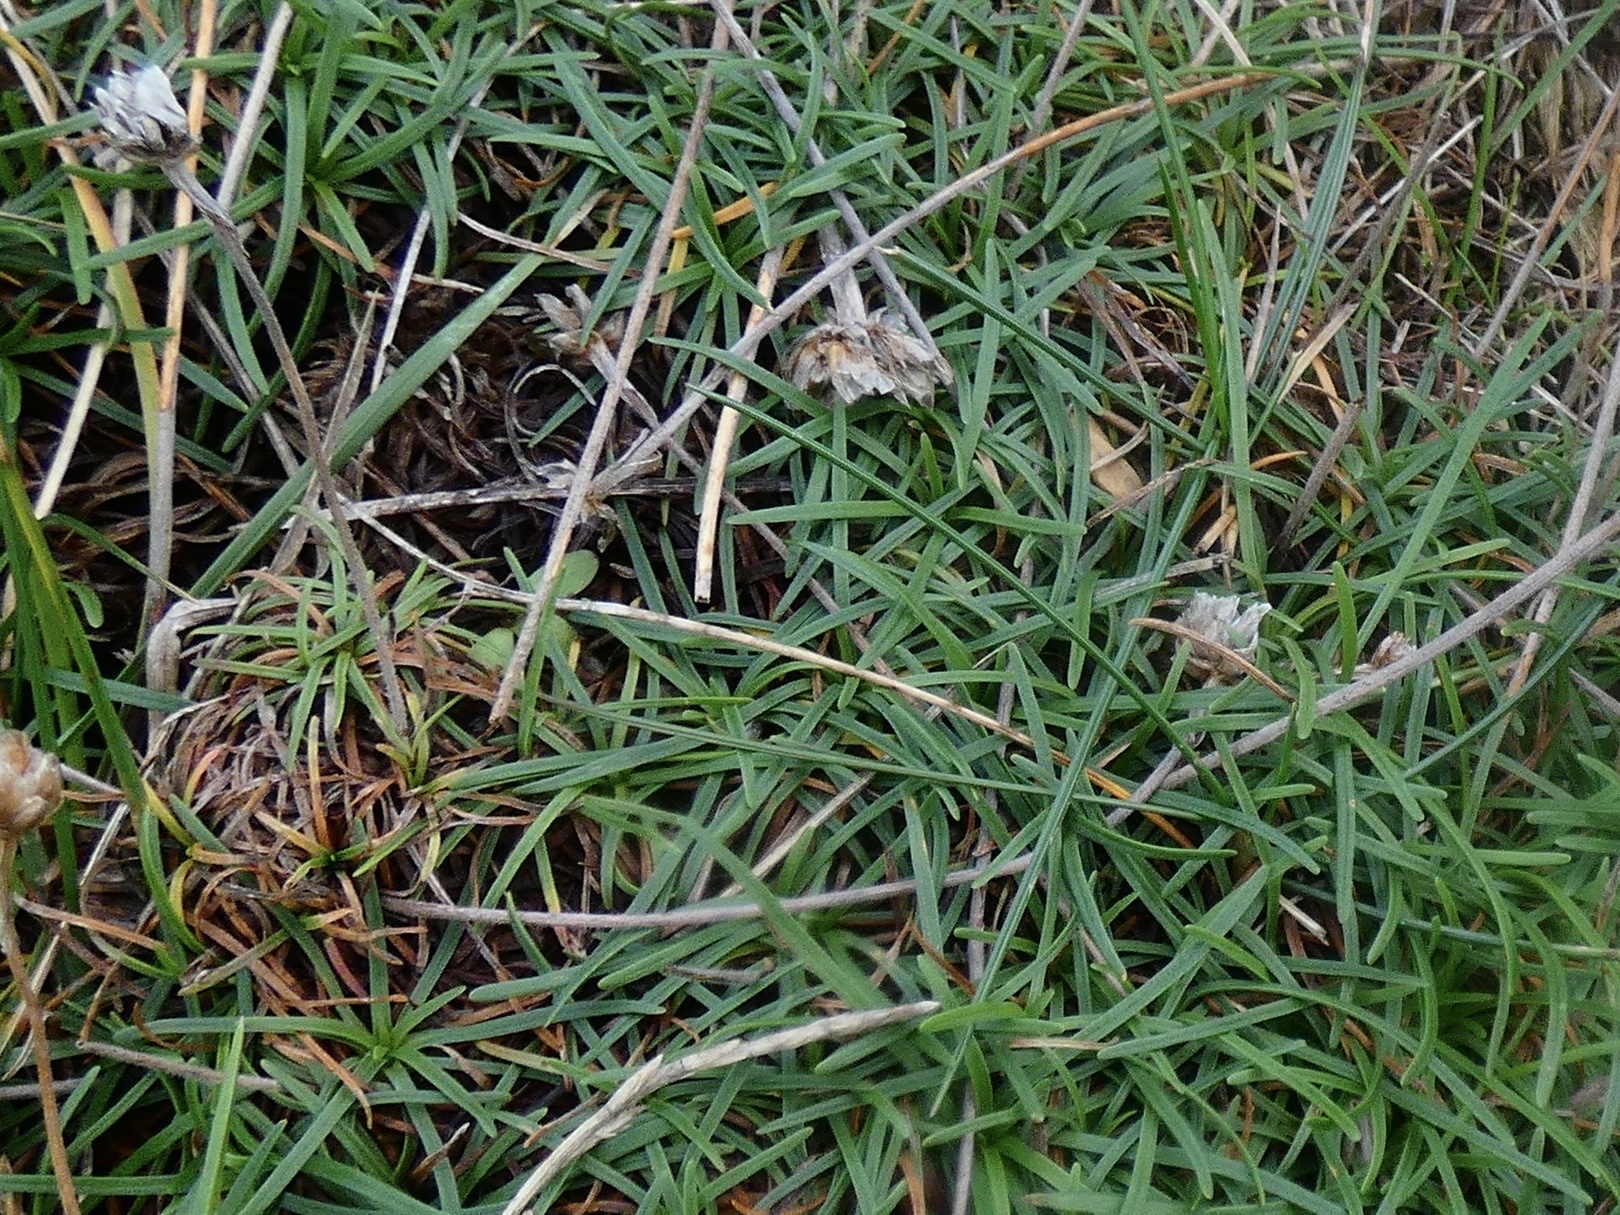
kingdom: Plantae
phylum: Tracheophyta
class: Magnoliopsida
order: Caryophyllales
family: Plumbaginaceae
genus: Armeria
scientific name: Armeria maritima
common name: Thrift
